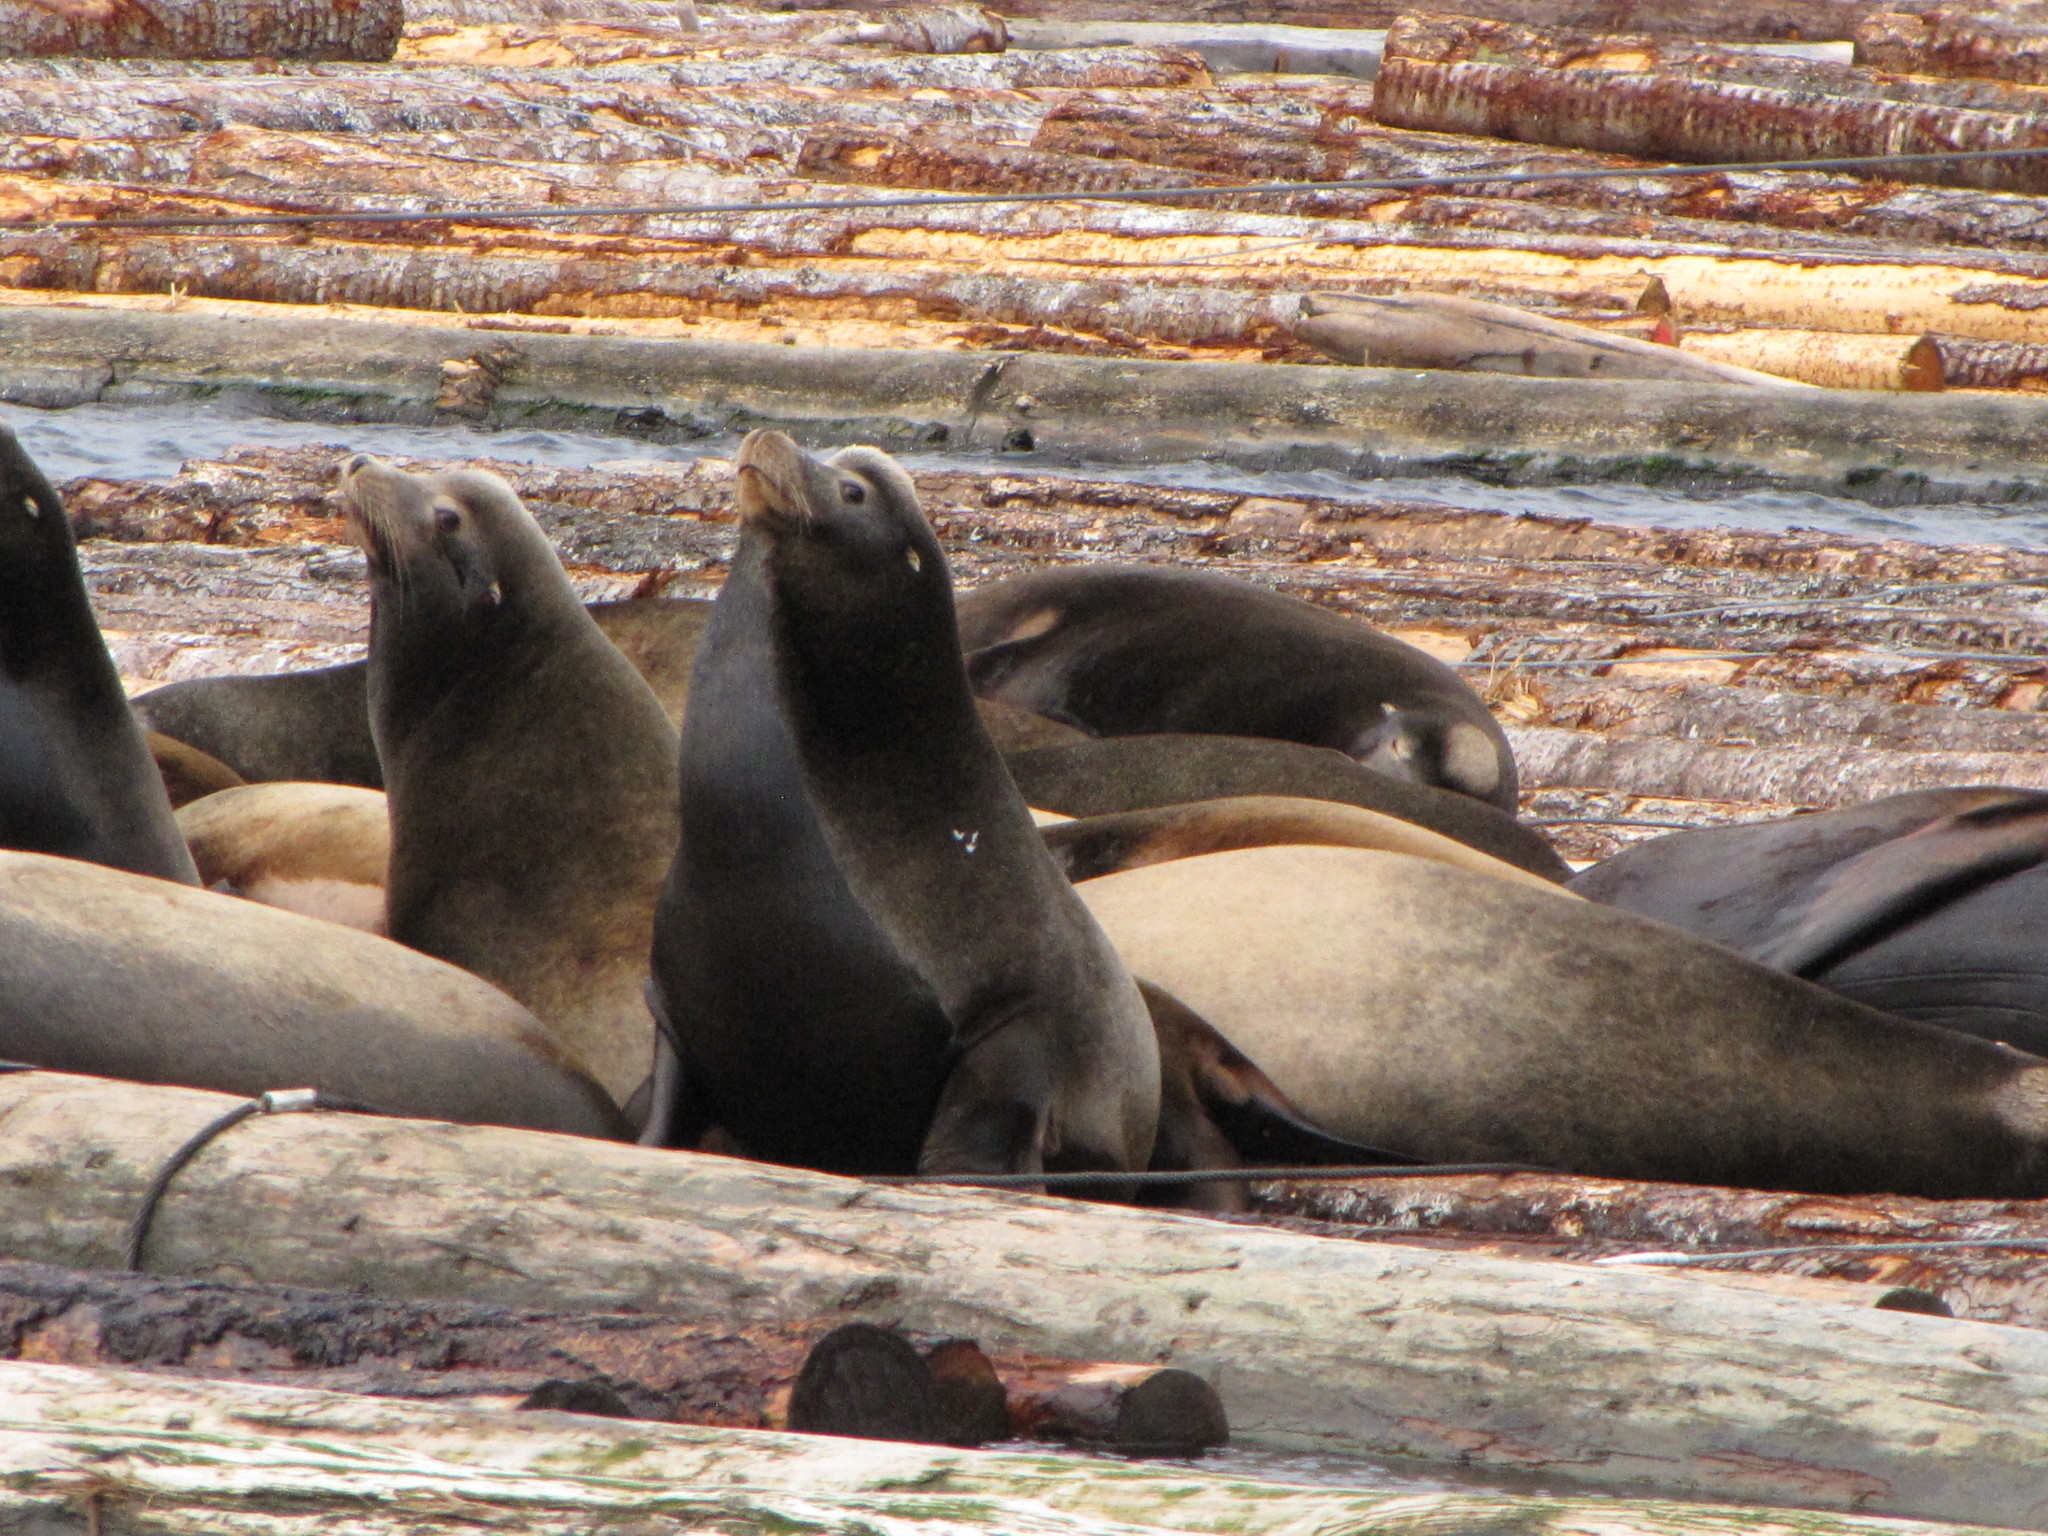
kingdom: Animalia
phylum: Chordata
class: Mammalia
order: Carnivora
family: Otariidae
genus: Zalophus
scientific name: Zalophus californianus
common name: California sea lion
